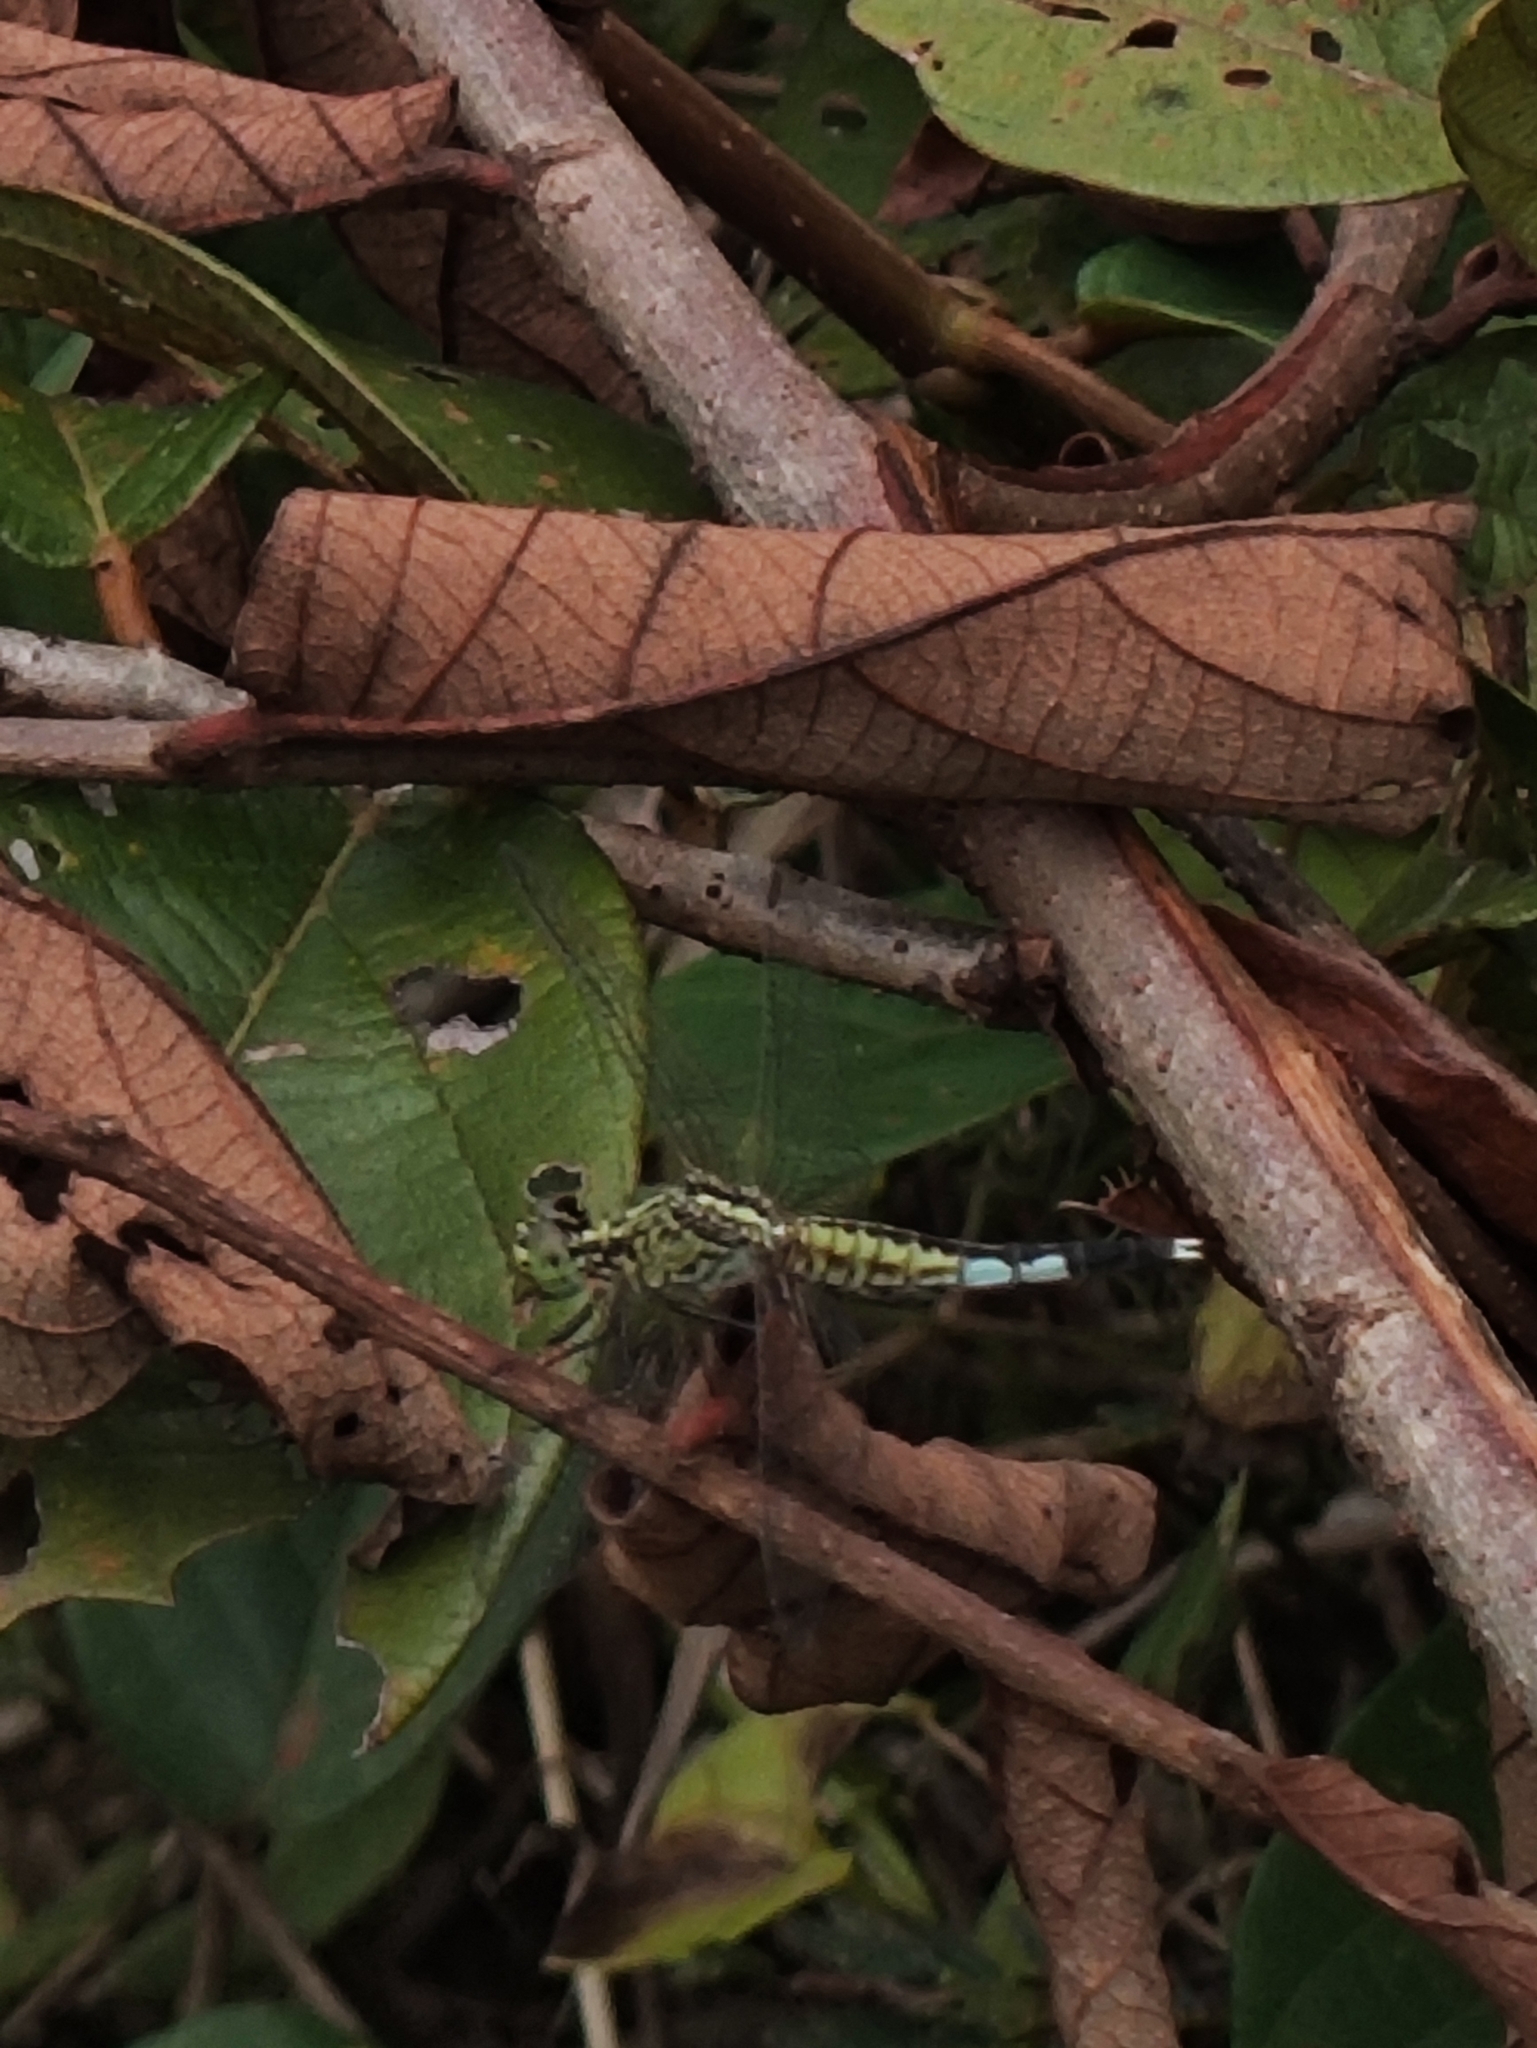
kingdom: Animalia
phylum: Arthropoda
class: Insecta
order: Odonata
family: Libellulidae
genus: Acisoma
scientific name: Acisoma panorpoides
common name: Asian pintail
